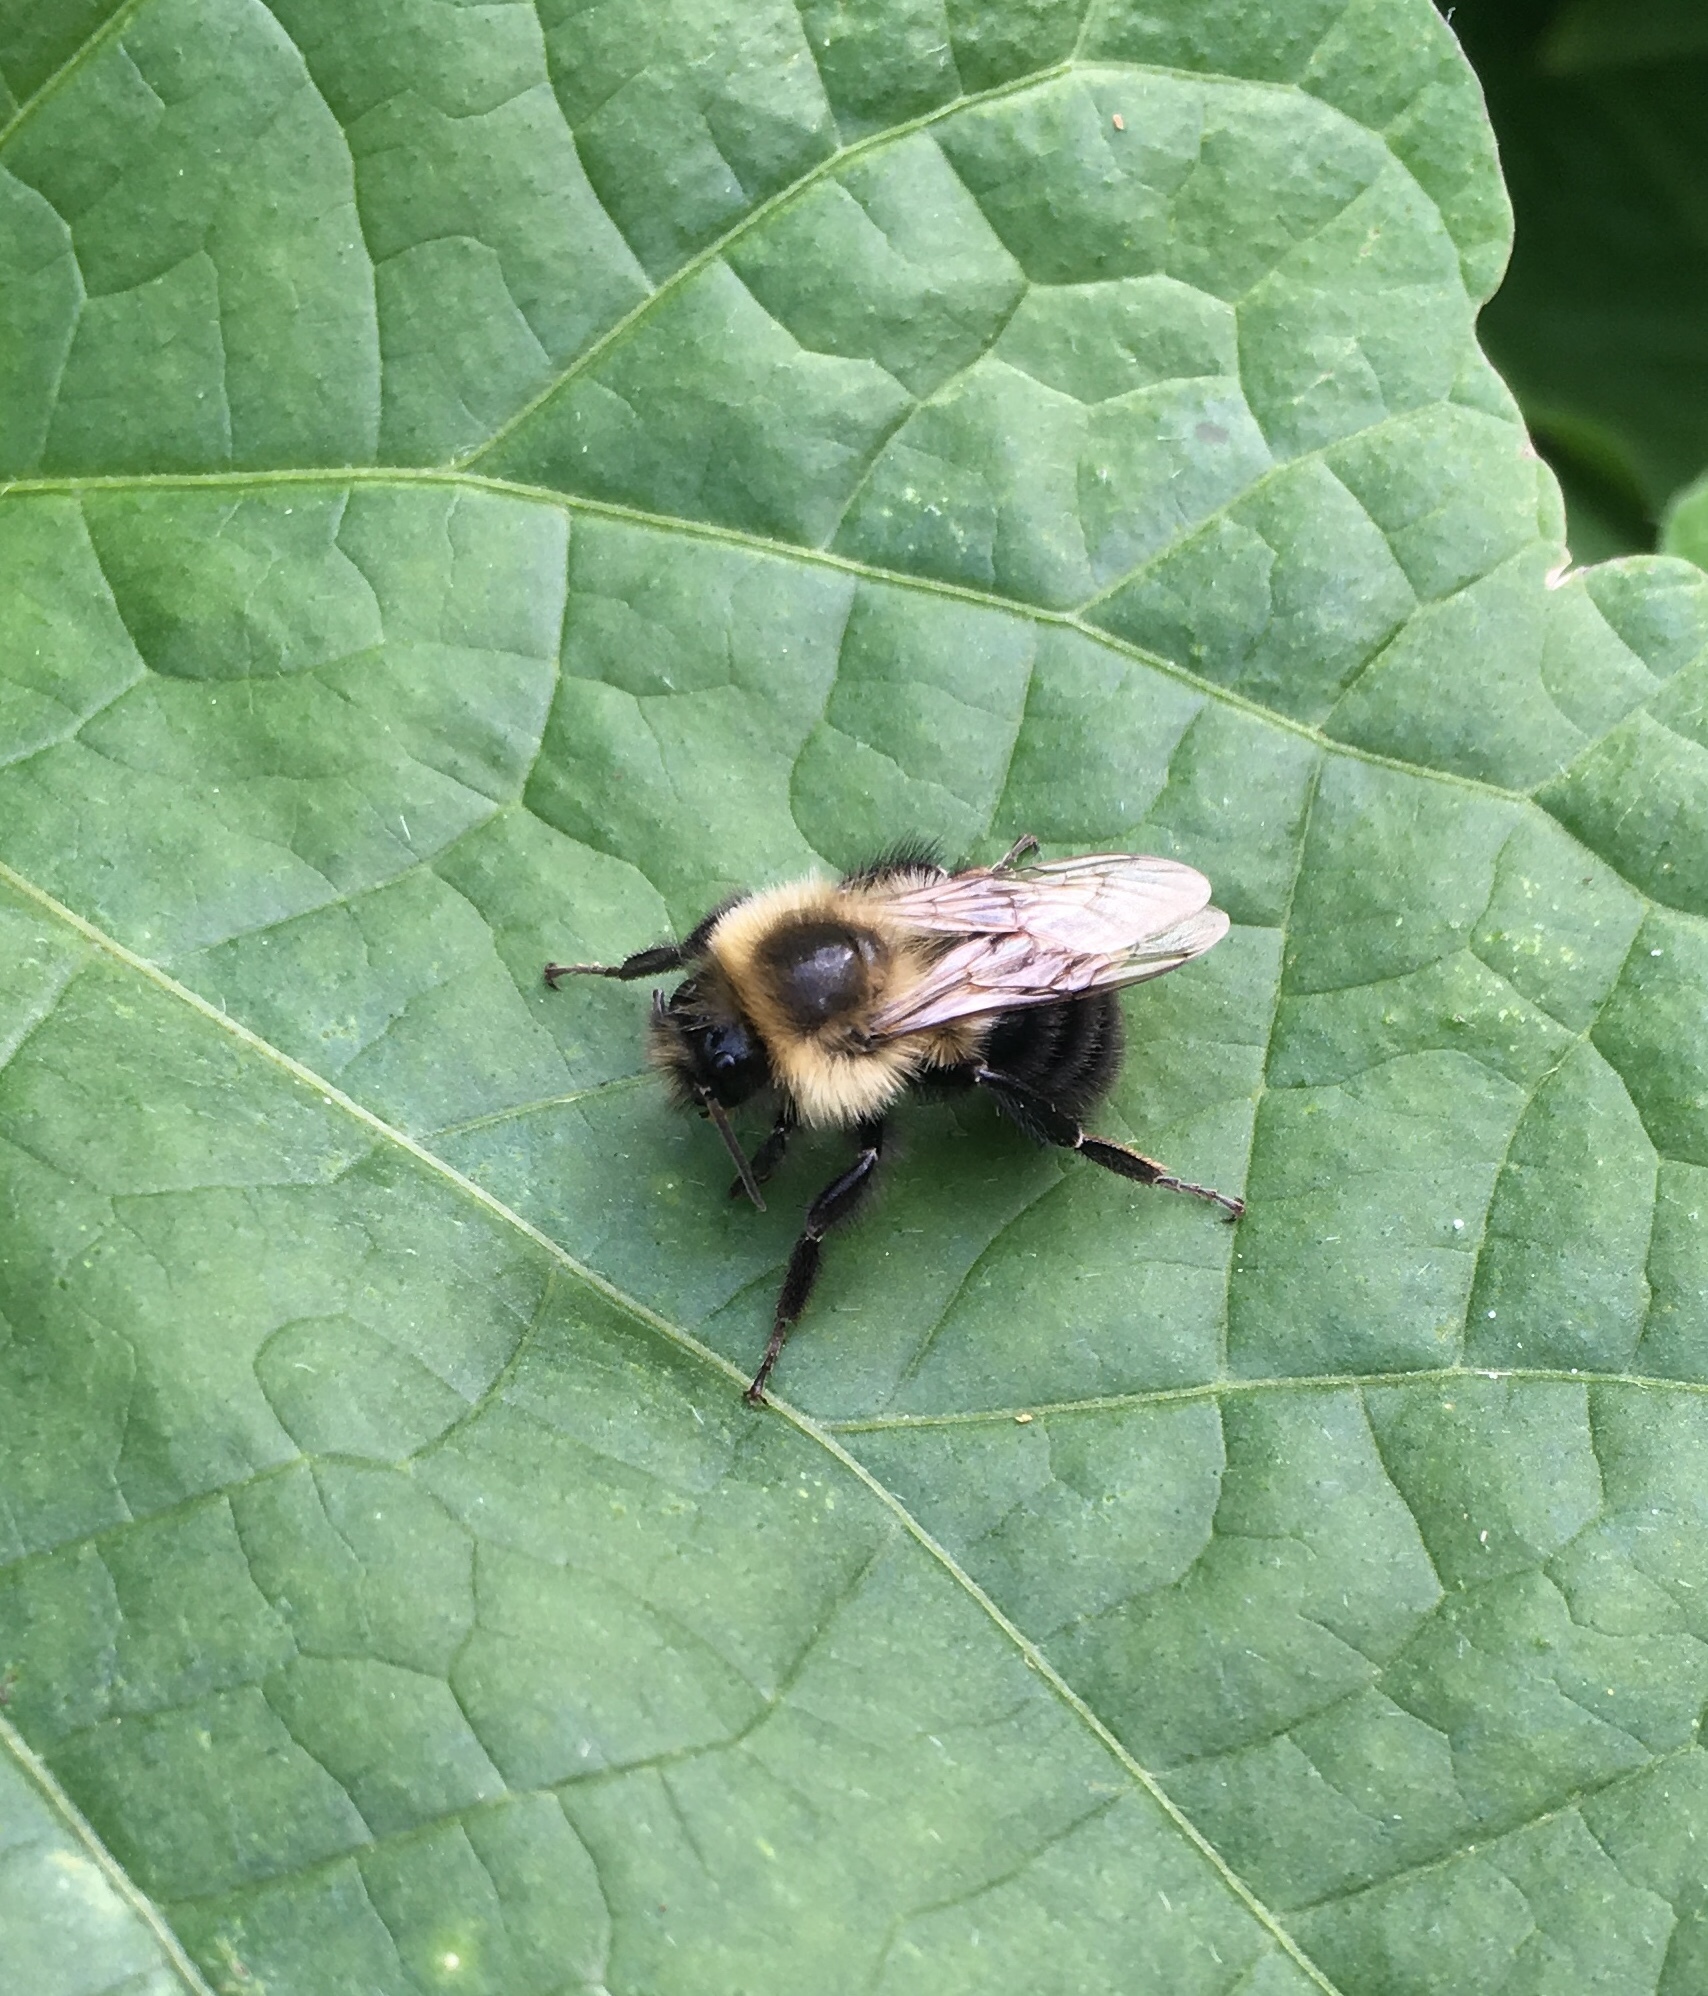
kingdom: Animalia
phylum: Arthropoda
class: Insecta
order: Hymenoptera
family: Apidae
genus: Bombus
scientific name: Bombus impatiens
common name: Common eastern bumble bee
